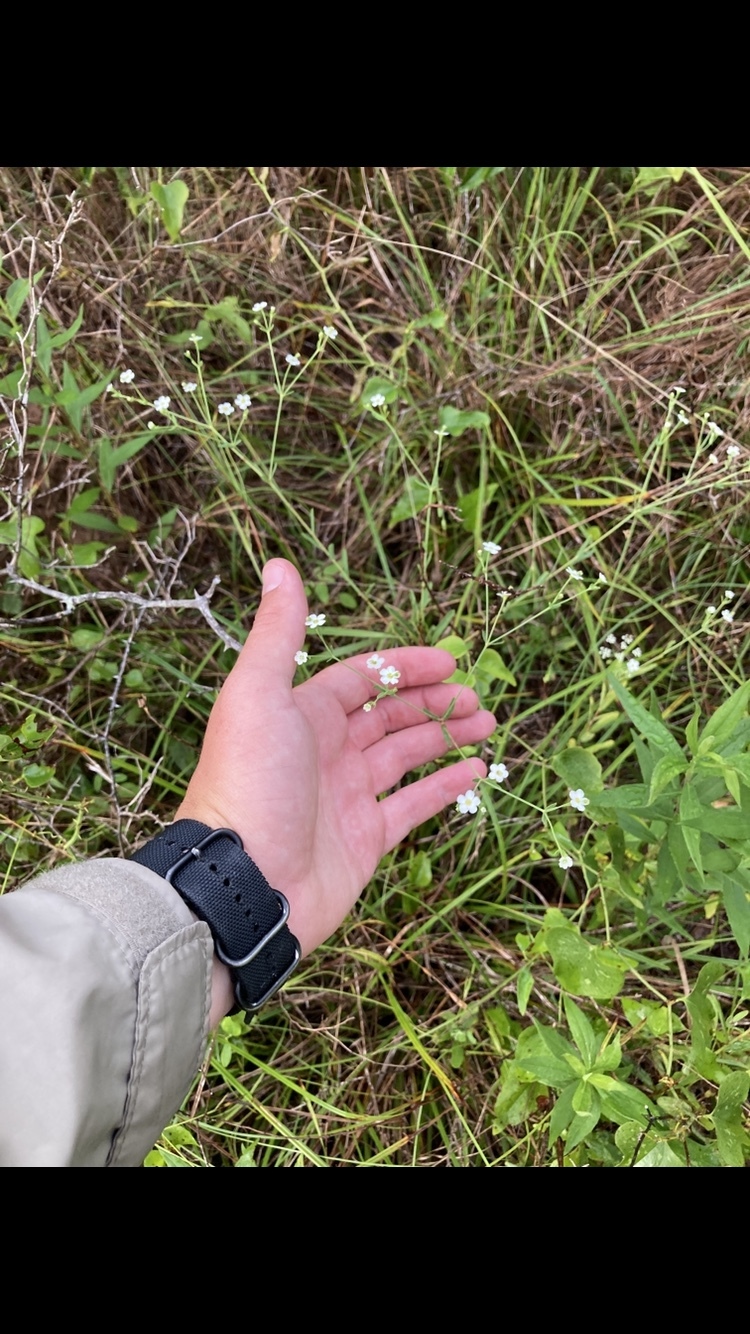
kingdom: Plantae
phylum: Tracheophyta
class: Magnoliopsida
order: Malpighiales
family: Euphorbiaceae
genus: Euphorbia
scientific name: Euphorbia corollata
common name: Flowering spurge
